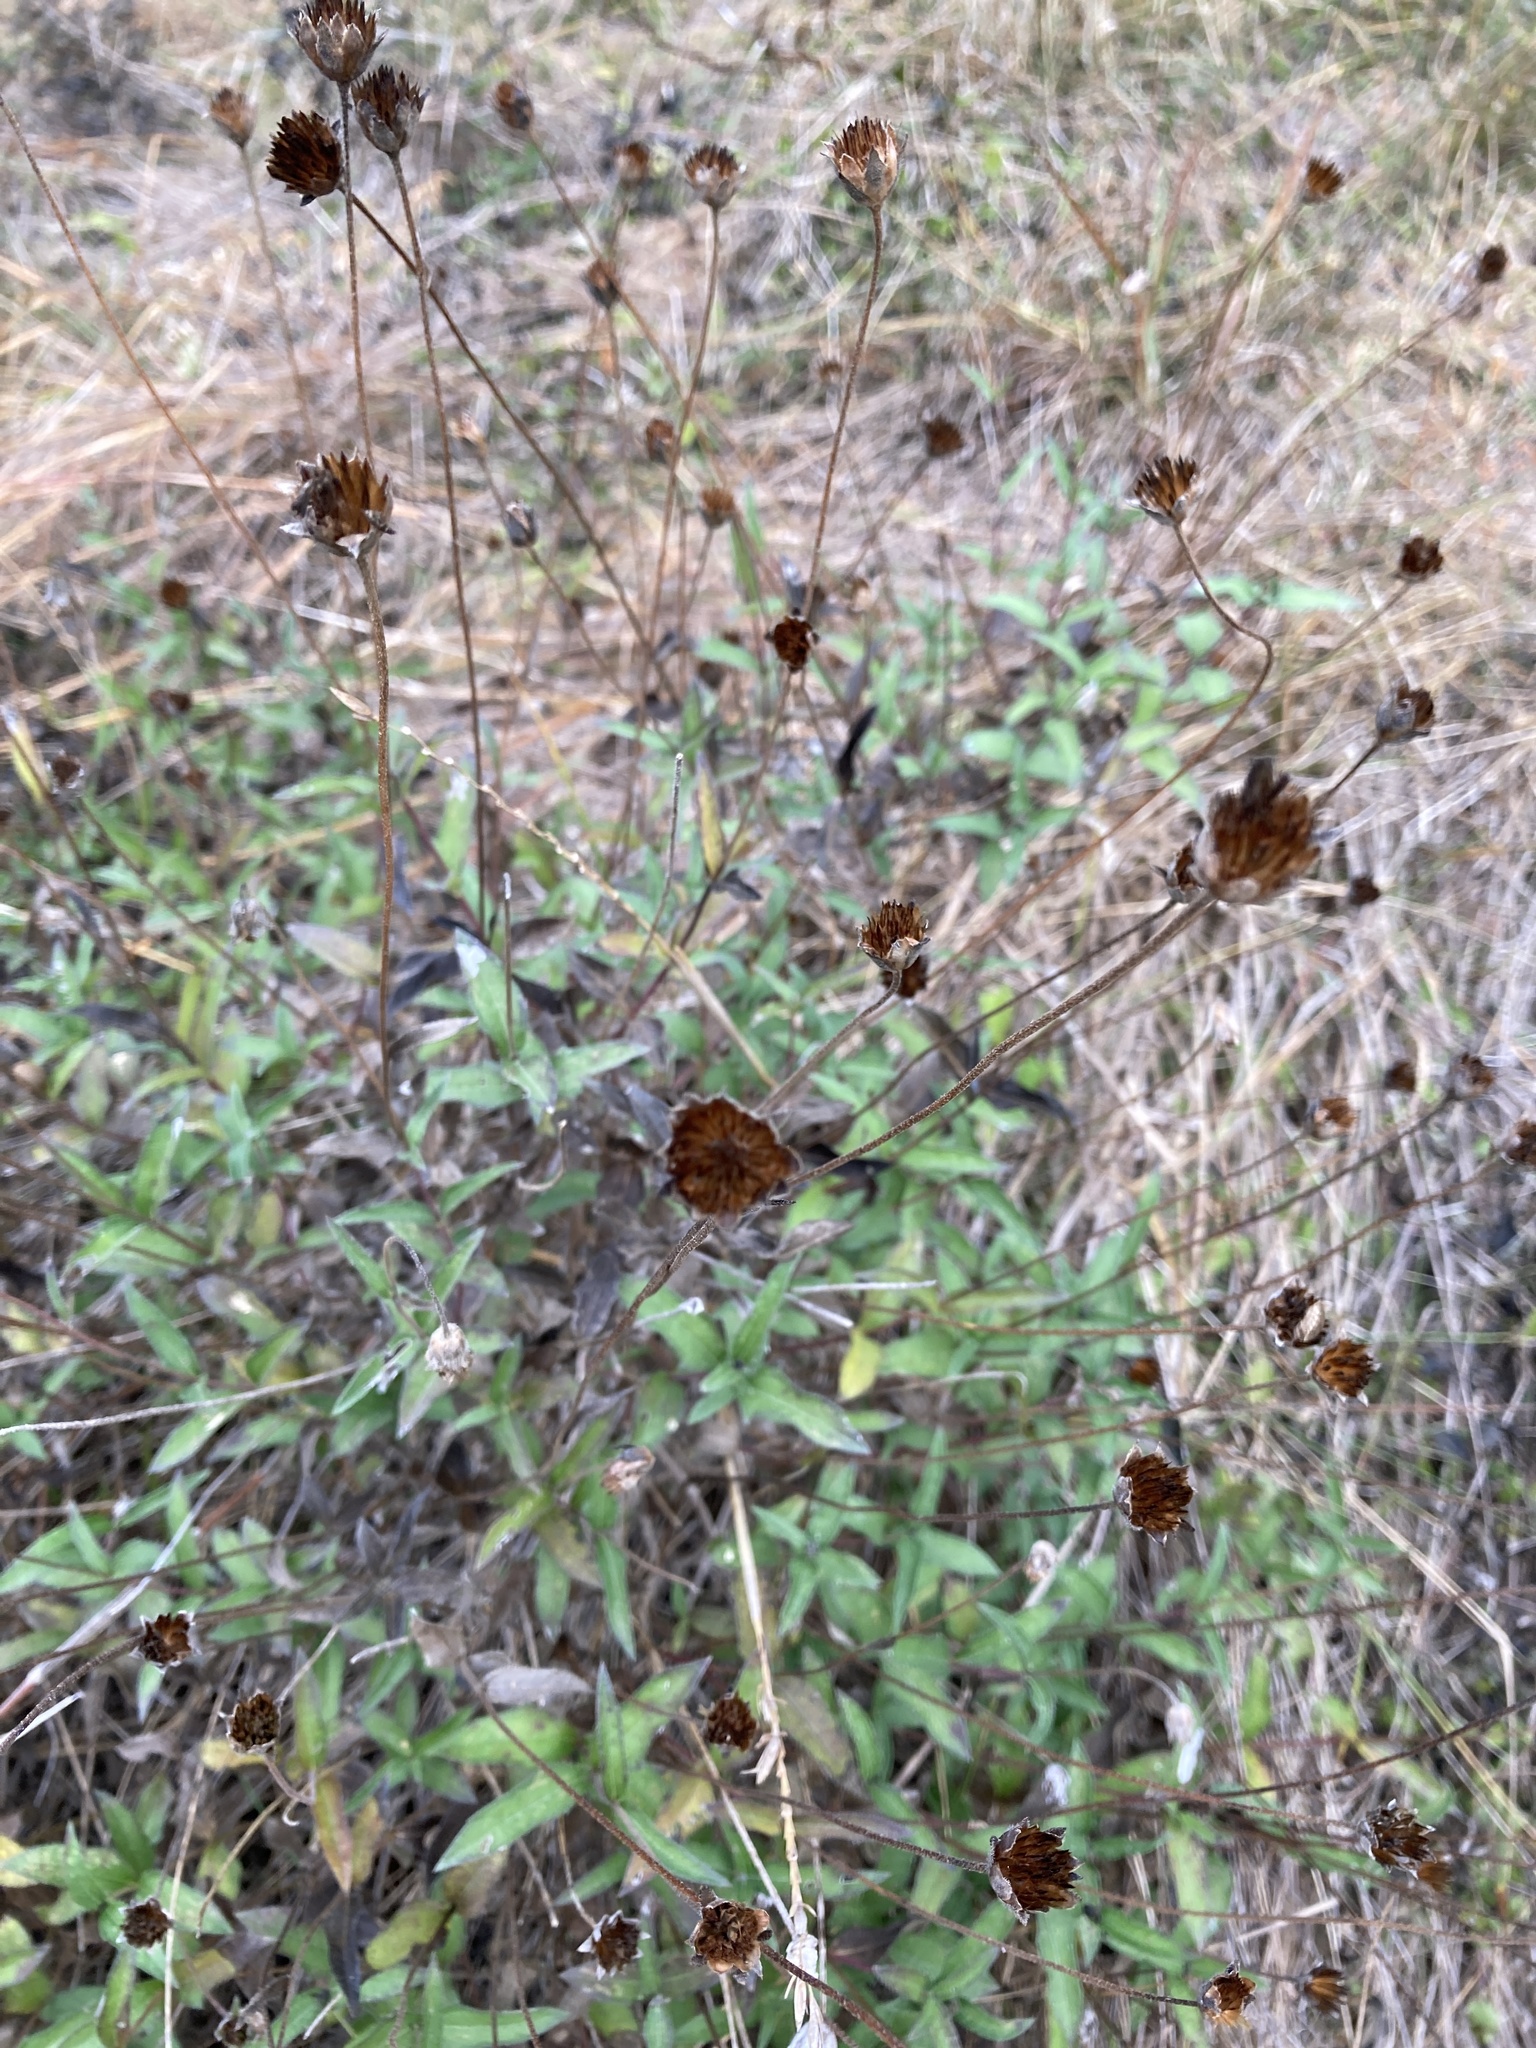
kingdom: Plantae
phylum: Tracheophyta
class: Magnoliopsida
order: Asterales
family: Asteraceae
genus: Wedelia
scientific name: Wedelia acapulcensis
